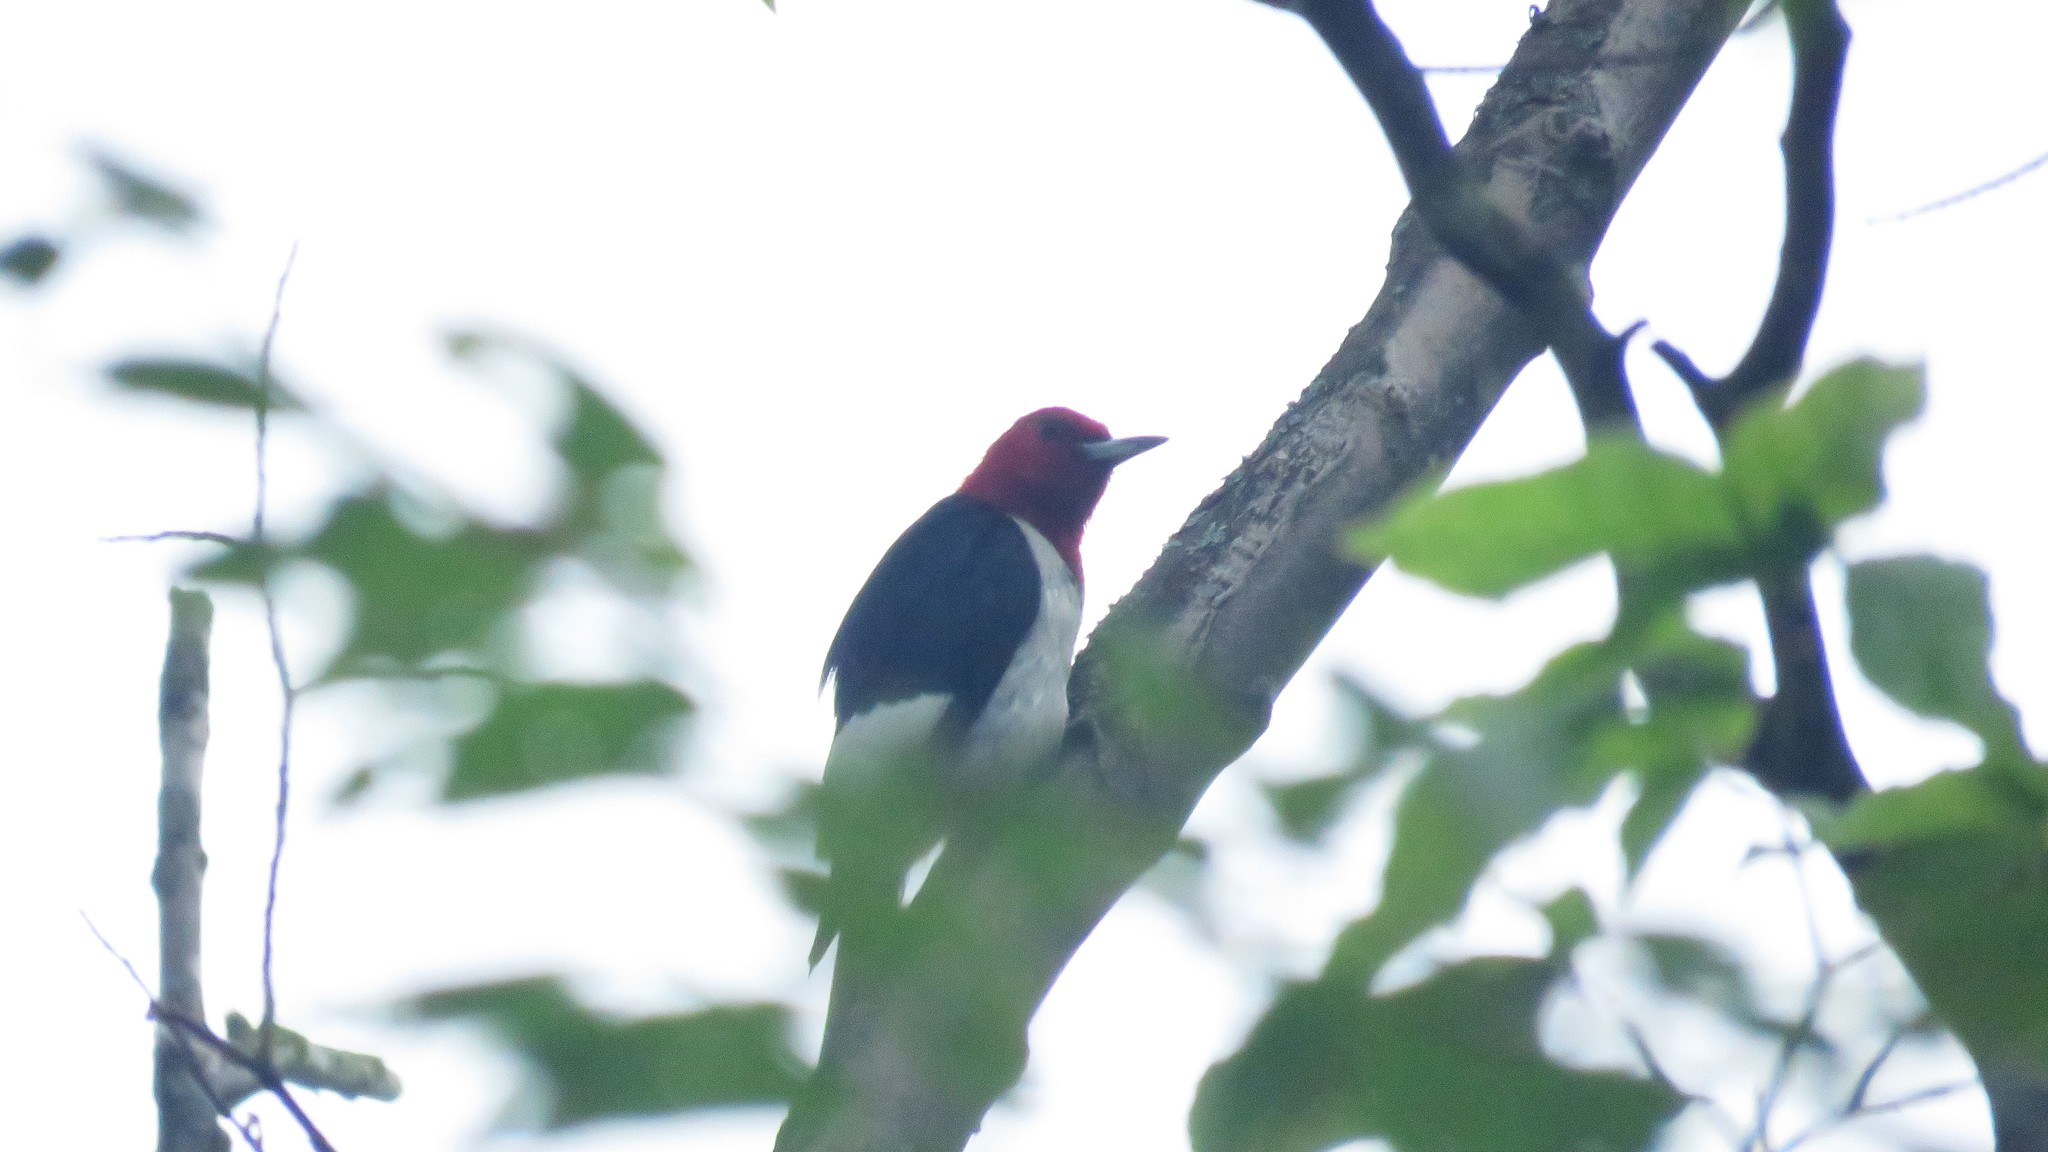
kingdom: Animalia
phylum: Chordata
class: Aves
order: Piciformes
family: Picidae
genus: Melanerpes
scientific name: Melanerpes erythrocephalus
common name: Red-headed woodpecker
